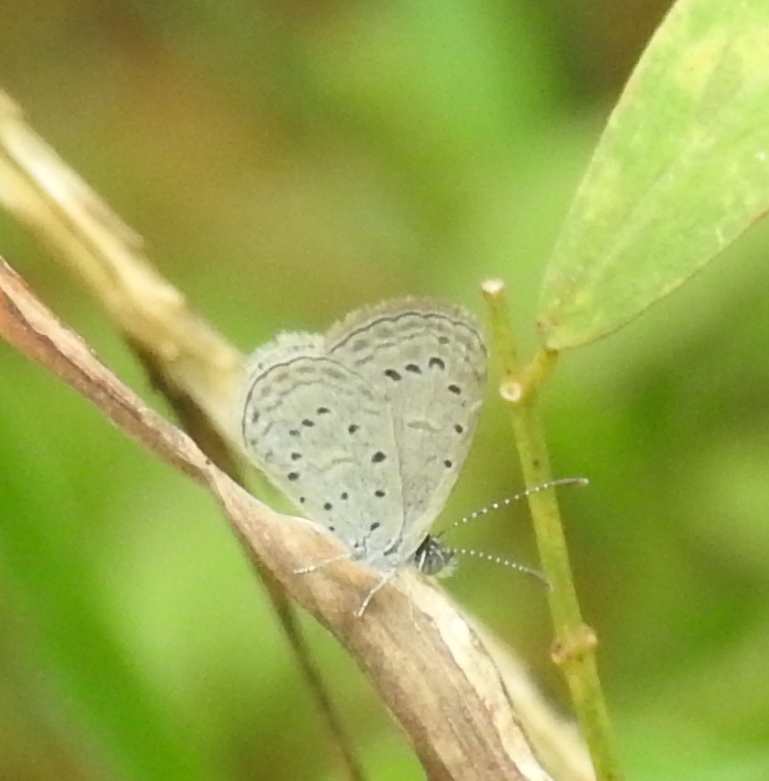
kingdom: Animalia
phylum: Arthropoda
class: Insecta
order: Lepidoptera
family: Lycaenidae
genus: Zizula
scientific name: Zizula hylax
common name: Gaika blue
